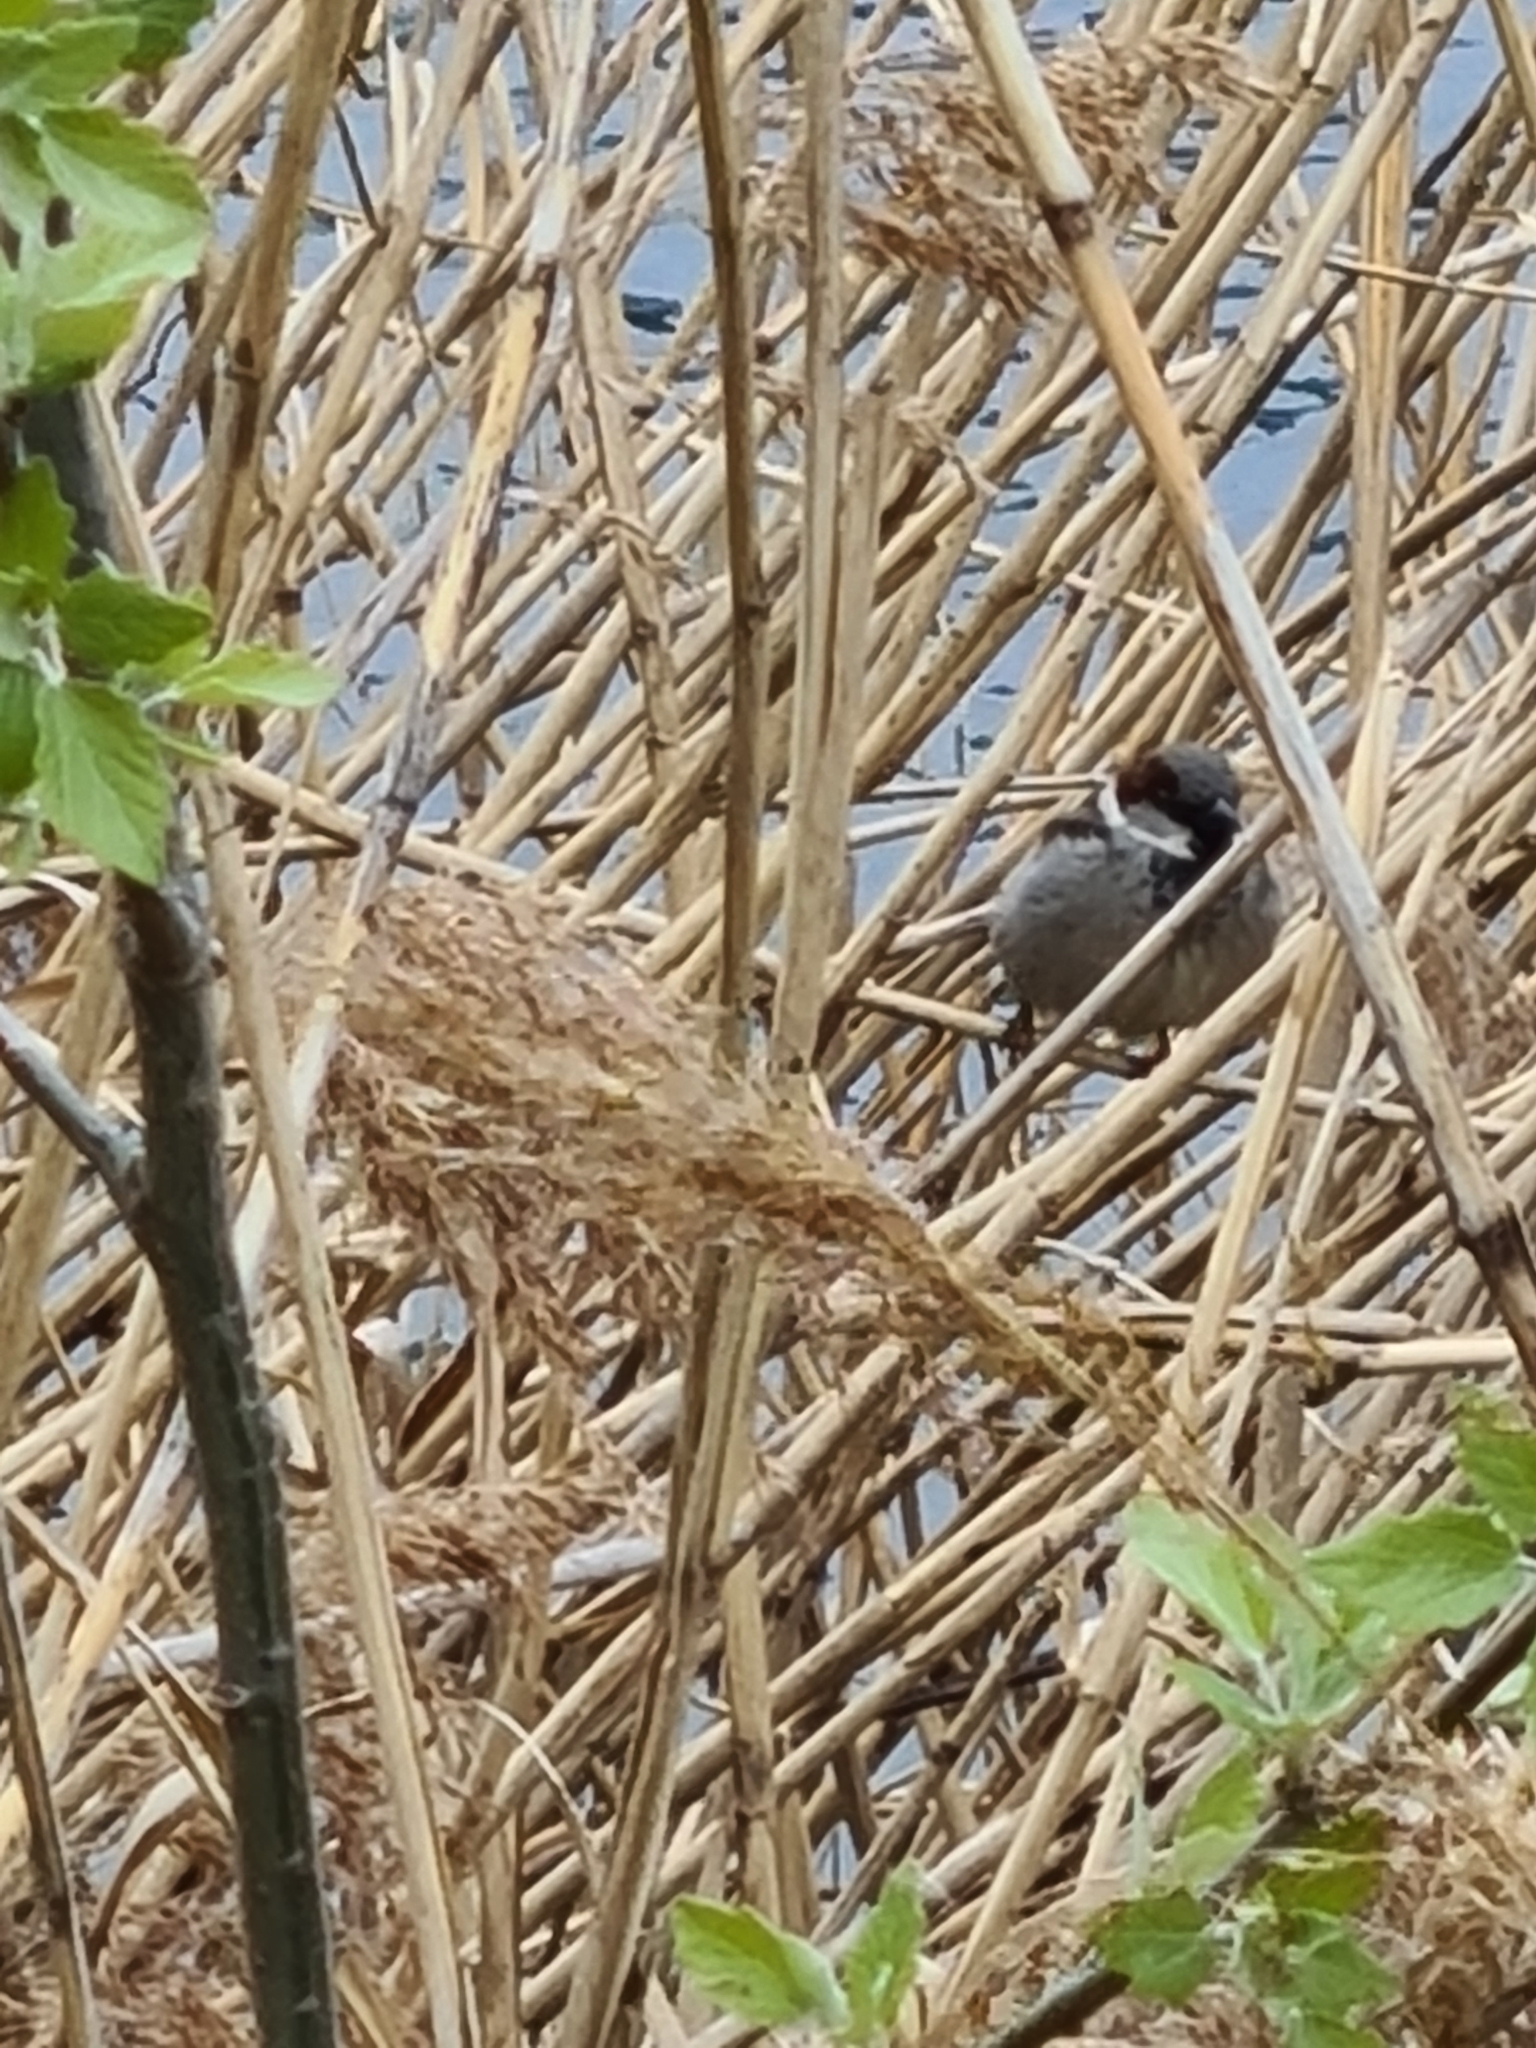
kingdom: Animalia
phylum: Chordata
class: Aves
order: Passeriformes
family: Passeridae
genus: Passer
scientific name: Passer domesticus
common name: House sparrow
